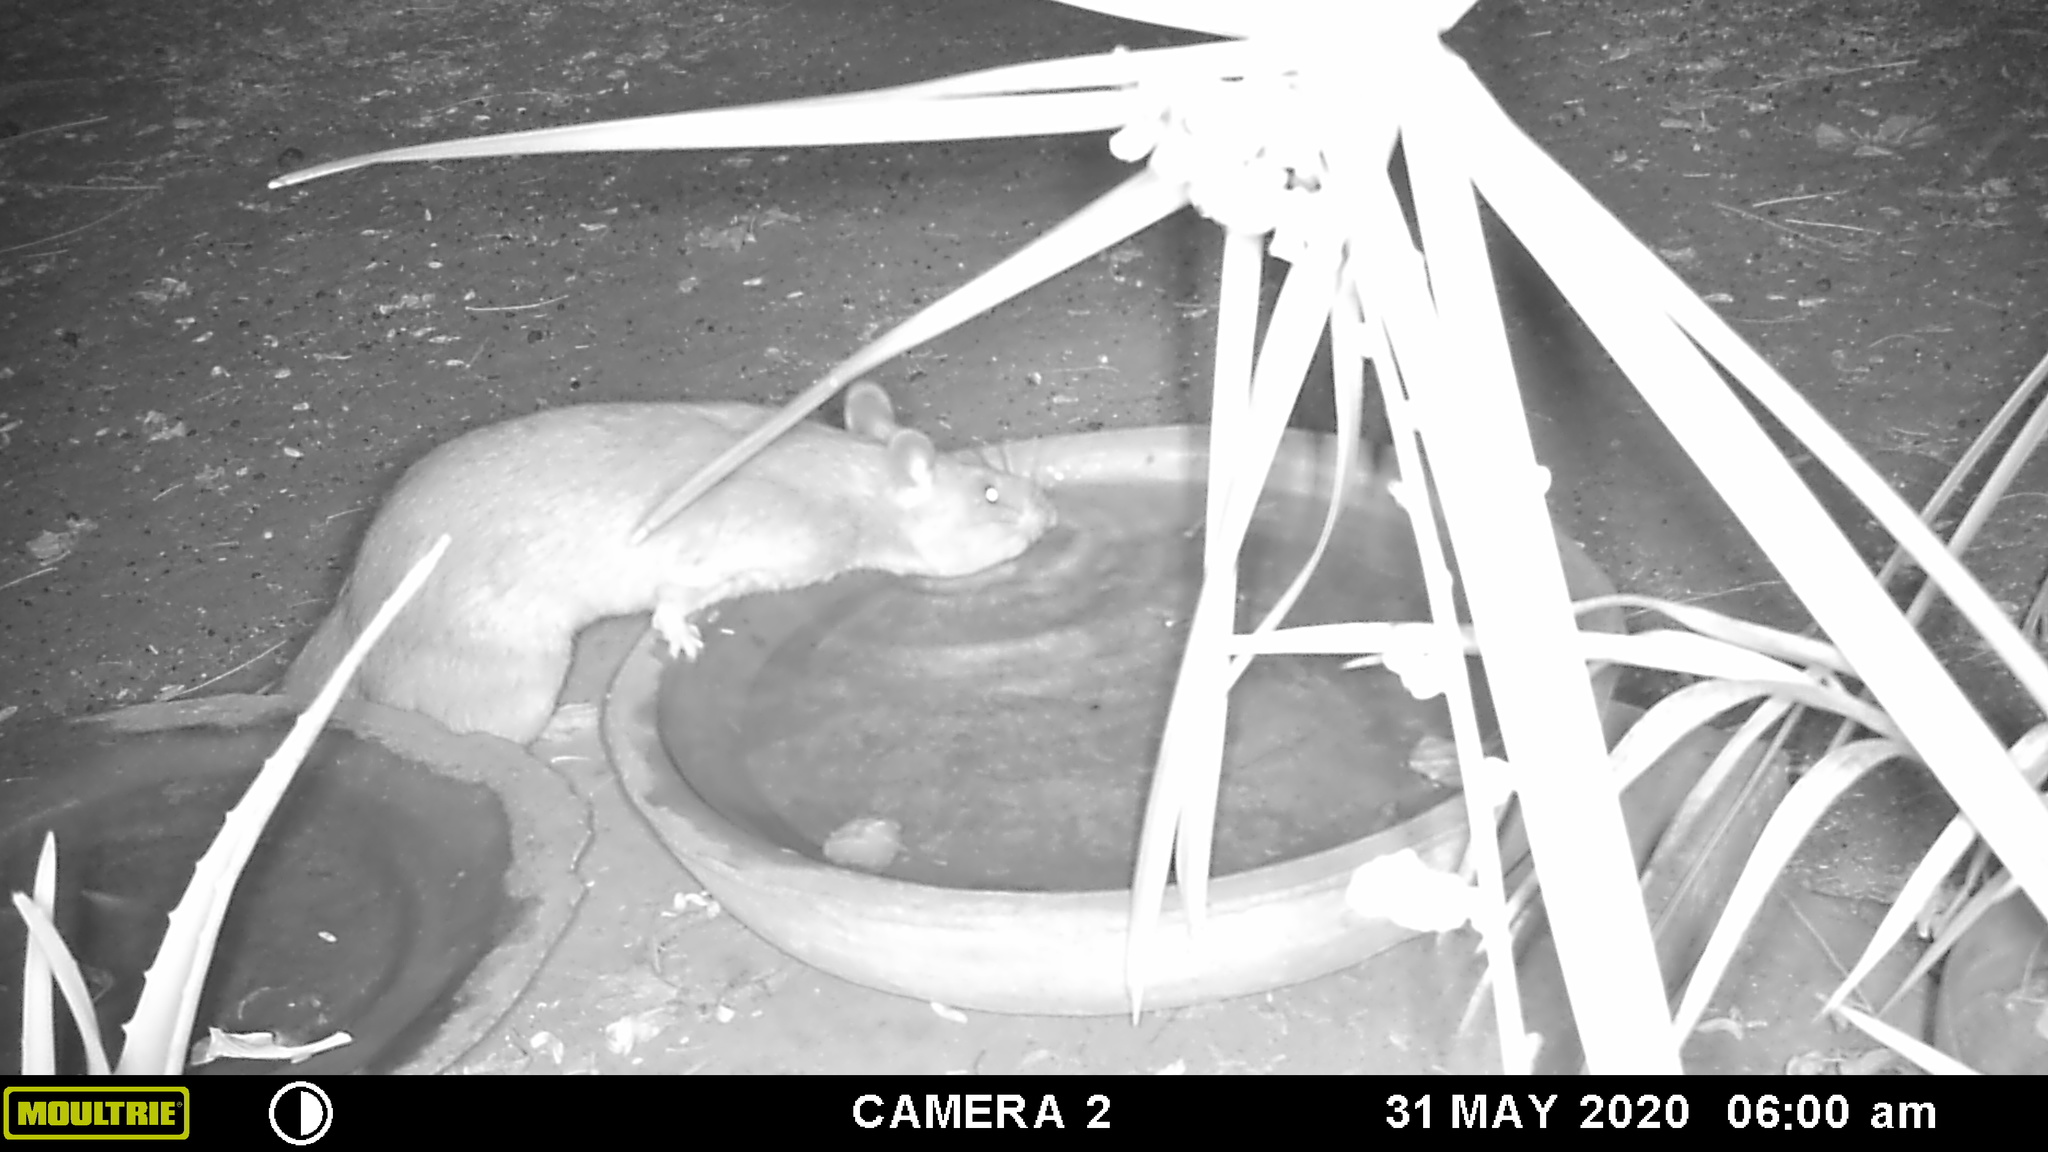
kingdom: Animalia
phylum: Chordata
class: Mammalia
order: Rodentia
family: Nesomyidae
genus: Cricetomys
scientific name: Cricetomys gambianus
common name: Northern giant pouched rat
